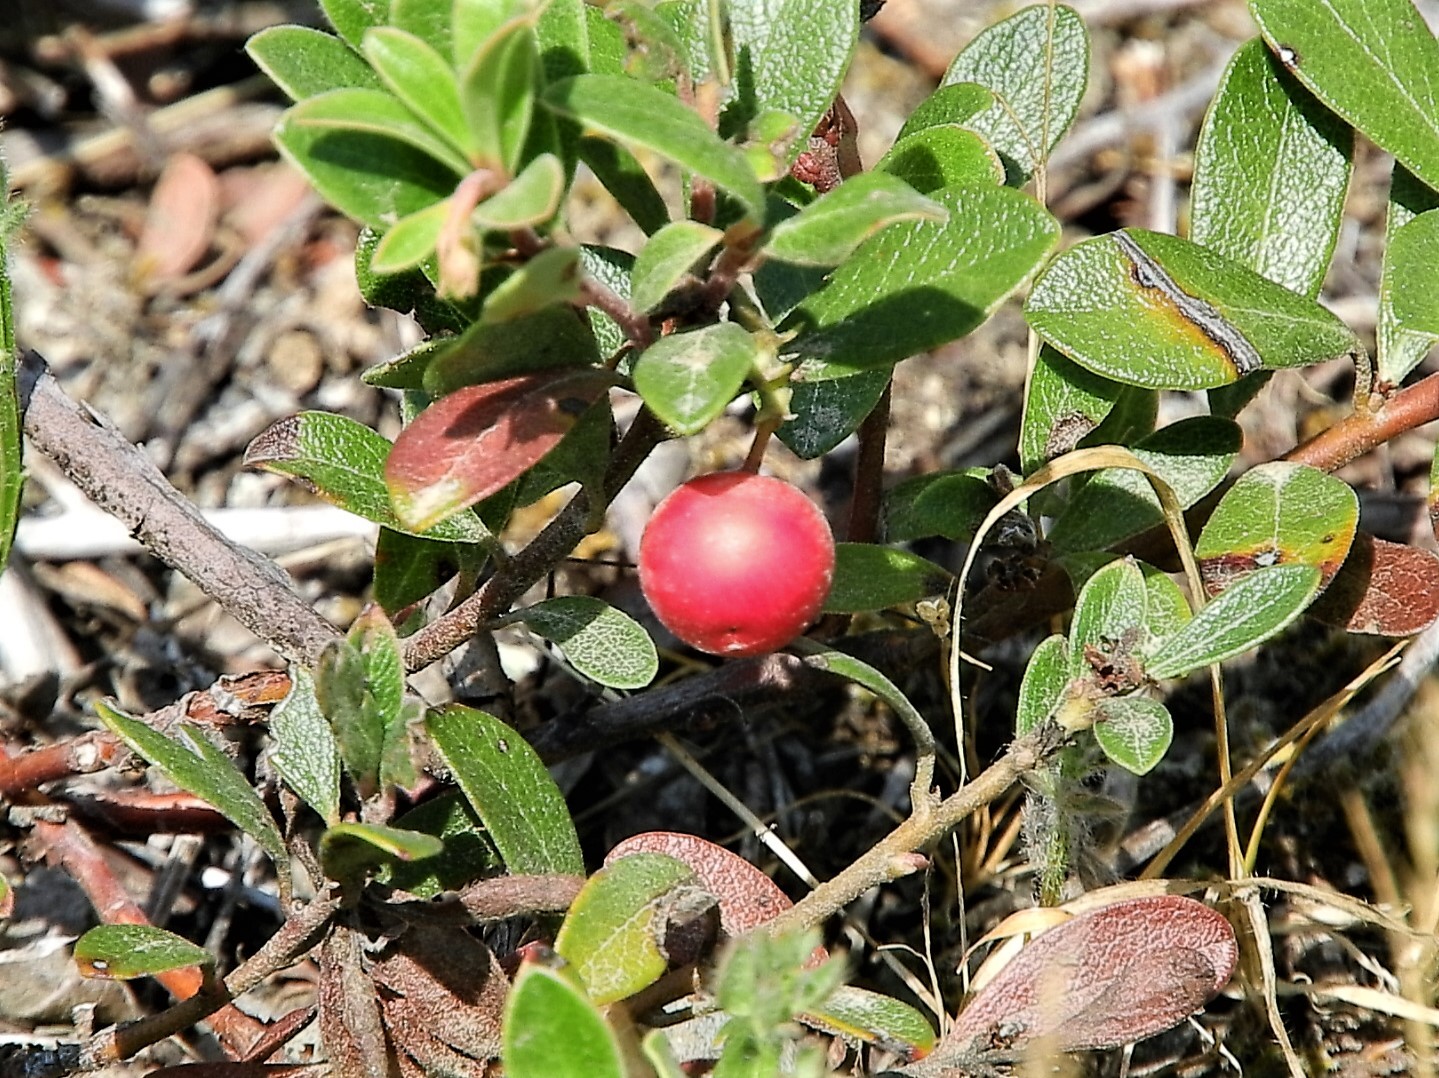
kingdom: Plantae
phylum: Tracheophyta
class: Magnoliopsida
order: Ericales
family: Ericaceae
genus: Arctostaphylos
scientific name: Arctostaphylos uva-ursi
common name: Bearberry
